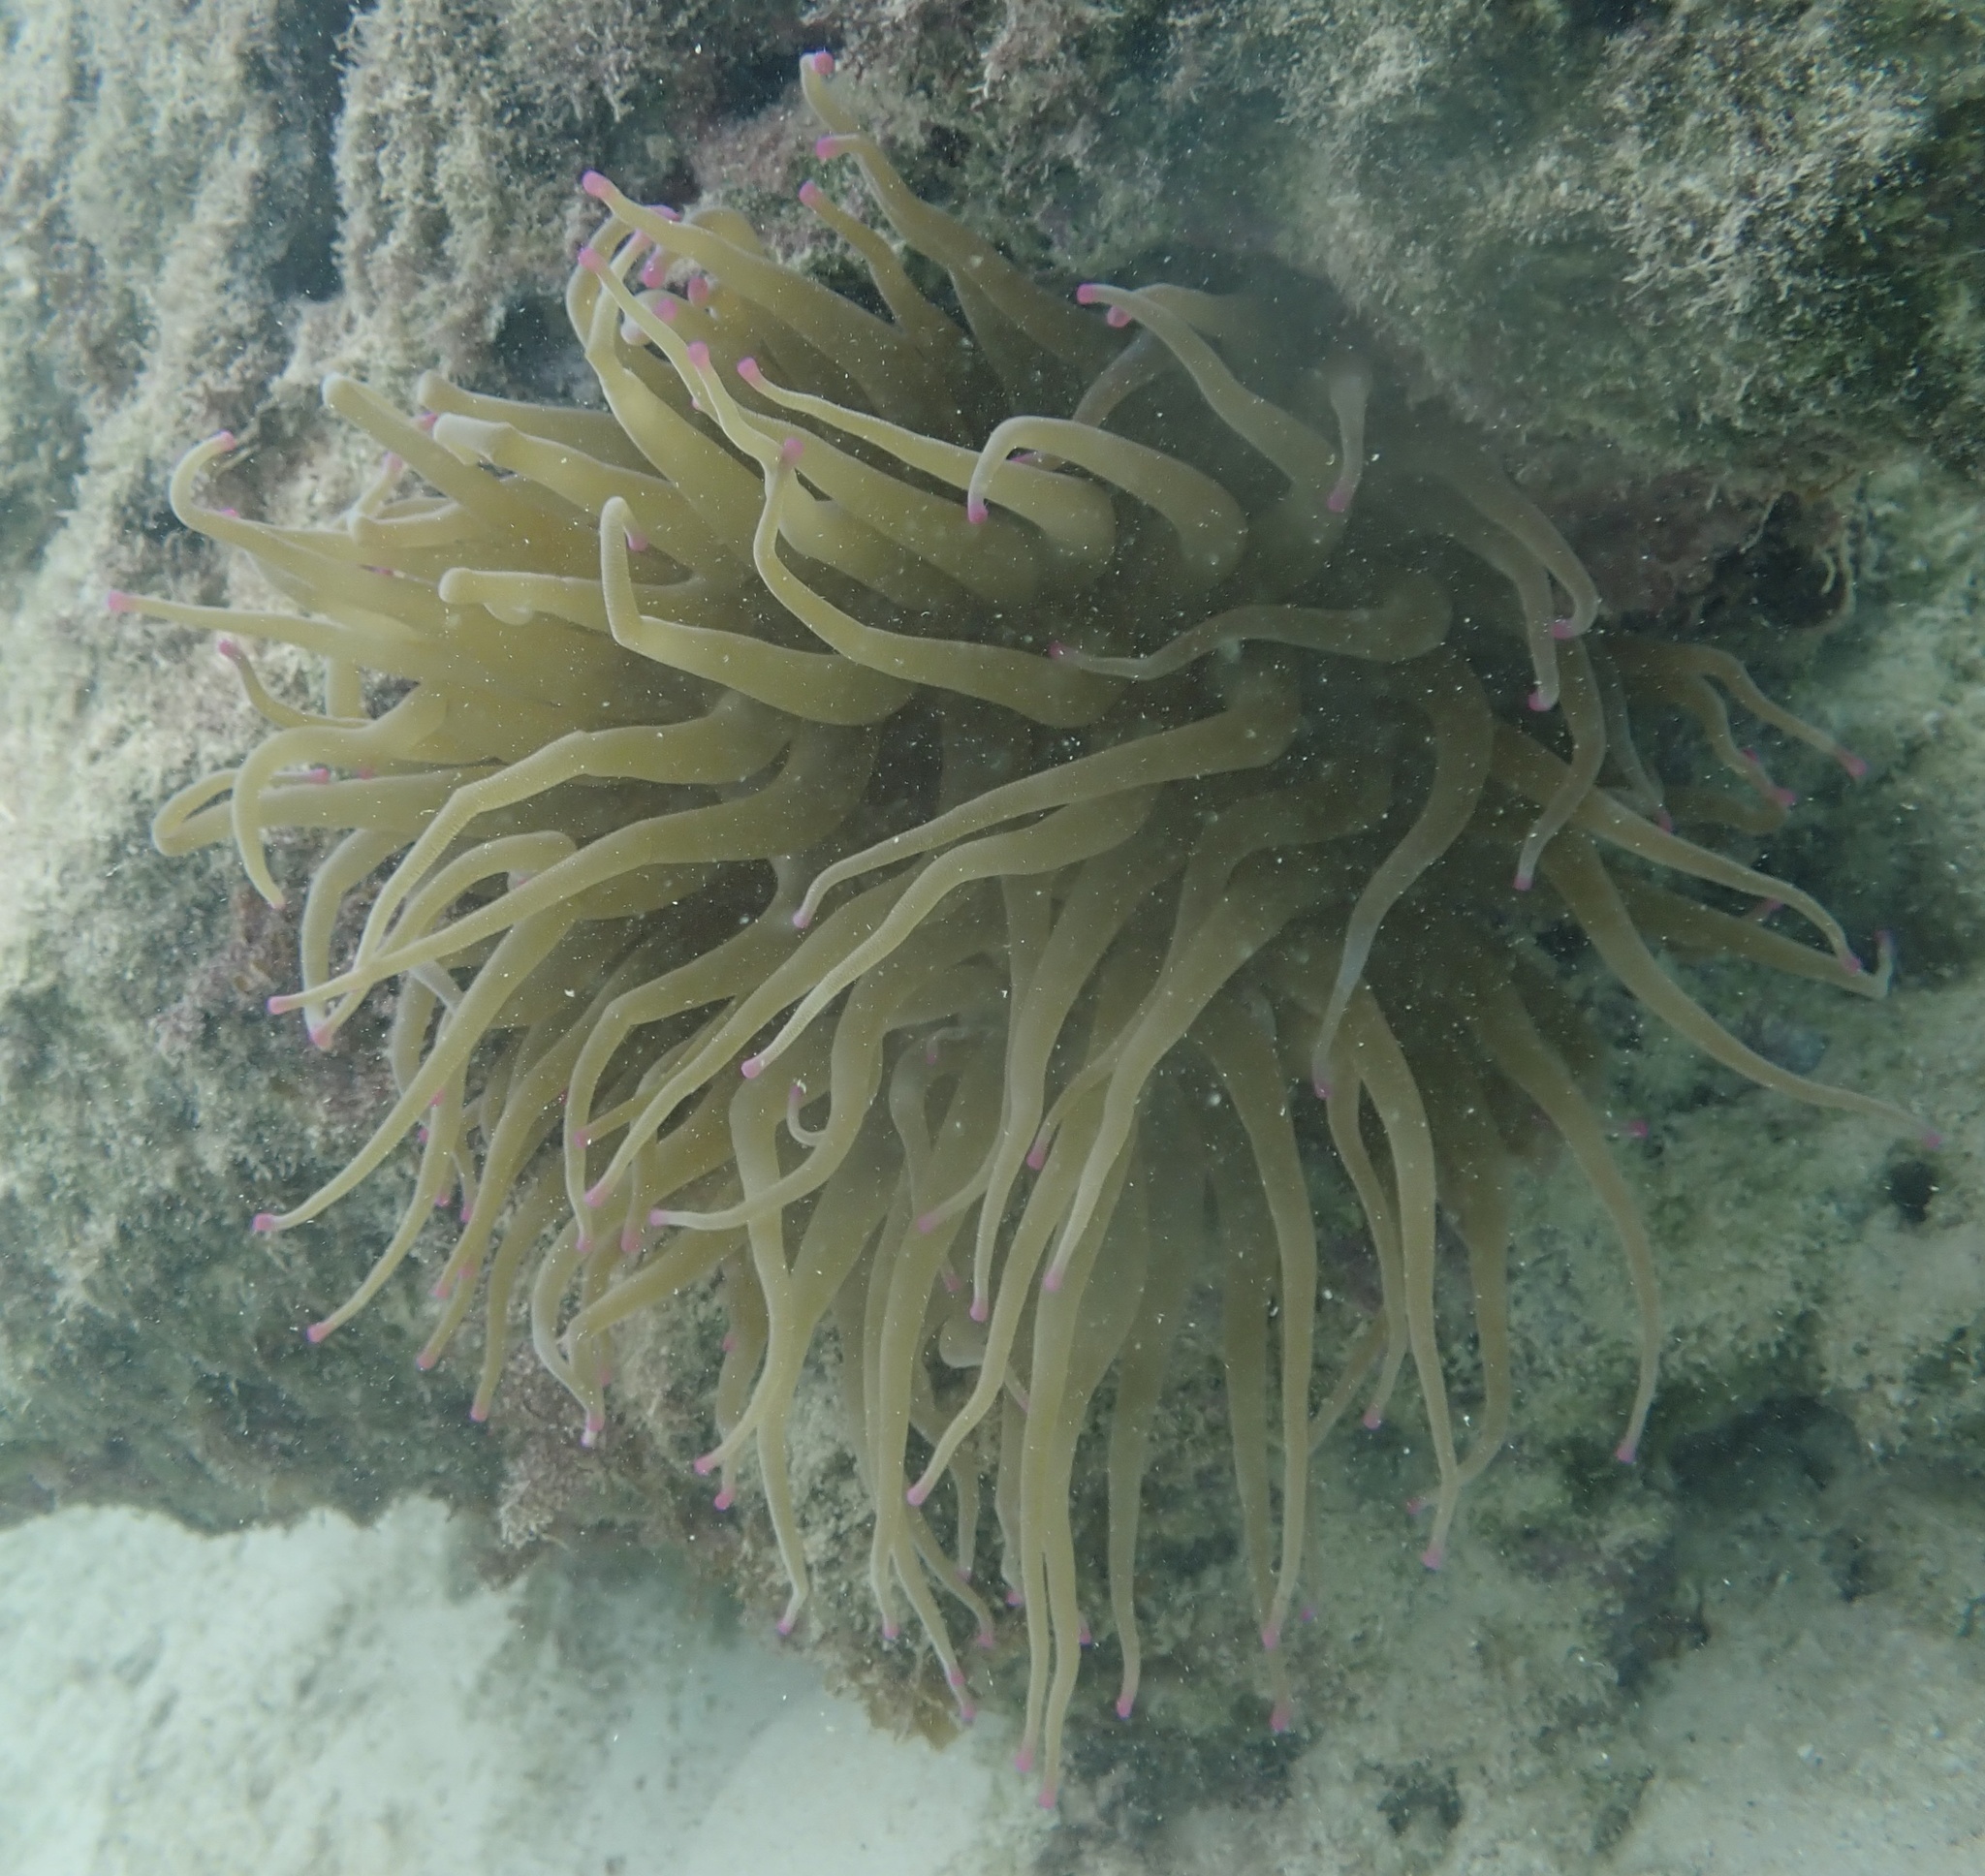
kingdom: Animalia
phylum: Cnidaria
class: Anthozoa
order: Actiniaria
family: Actiniidae
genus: Condylactis
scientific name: Condylactis gigantea
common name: Giant caribbean anemone
